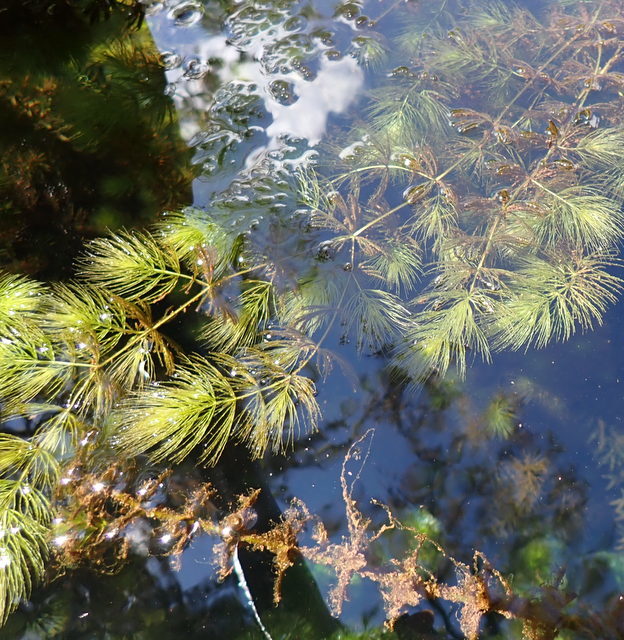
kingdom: Plantae
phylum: Tracheophyta
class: Magnoliopsida
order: Ceratophyllales
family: Ceratophyllaceae
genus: Ceratophyllum
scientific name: Ceratophyllum demersum
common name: Rigid hornwort
